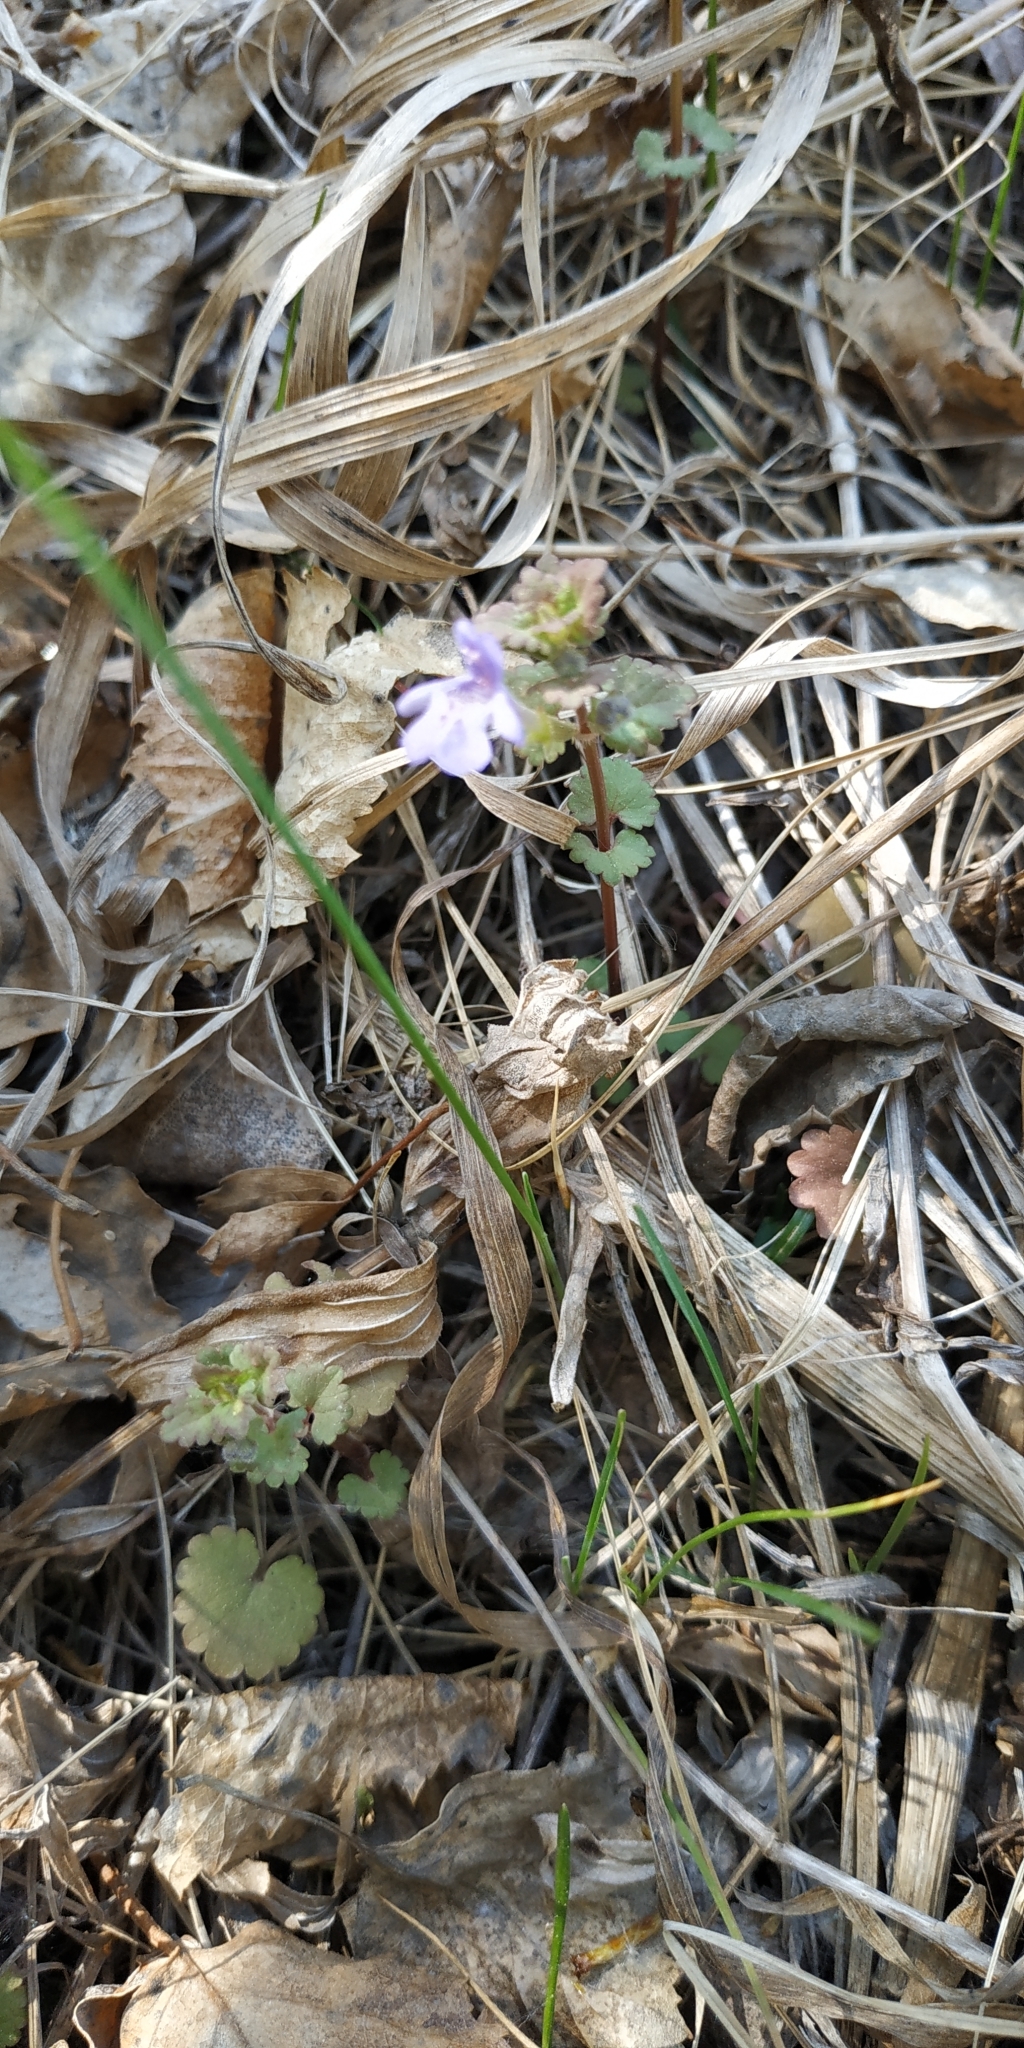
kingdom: Plantae
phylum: Tracheophyta
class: Magnoliopsida
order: Lamiales
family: Lamiaceae
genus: Glechoma
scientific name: Glechoma hederacea
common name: Ground ivy
